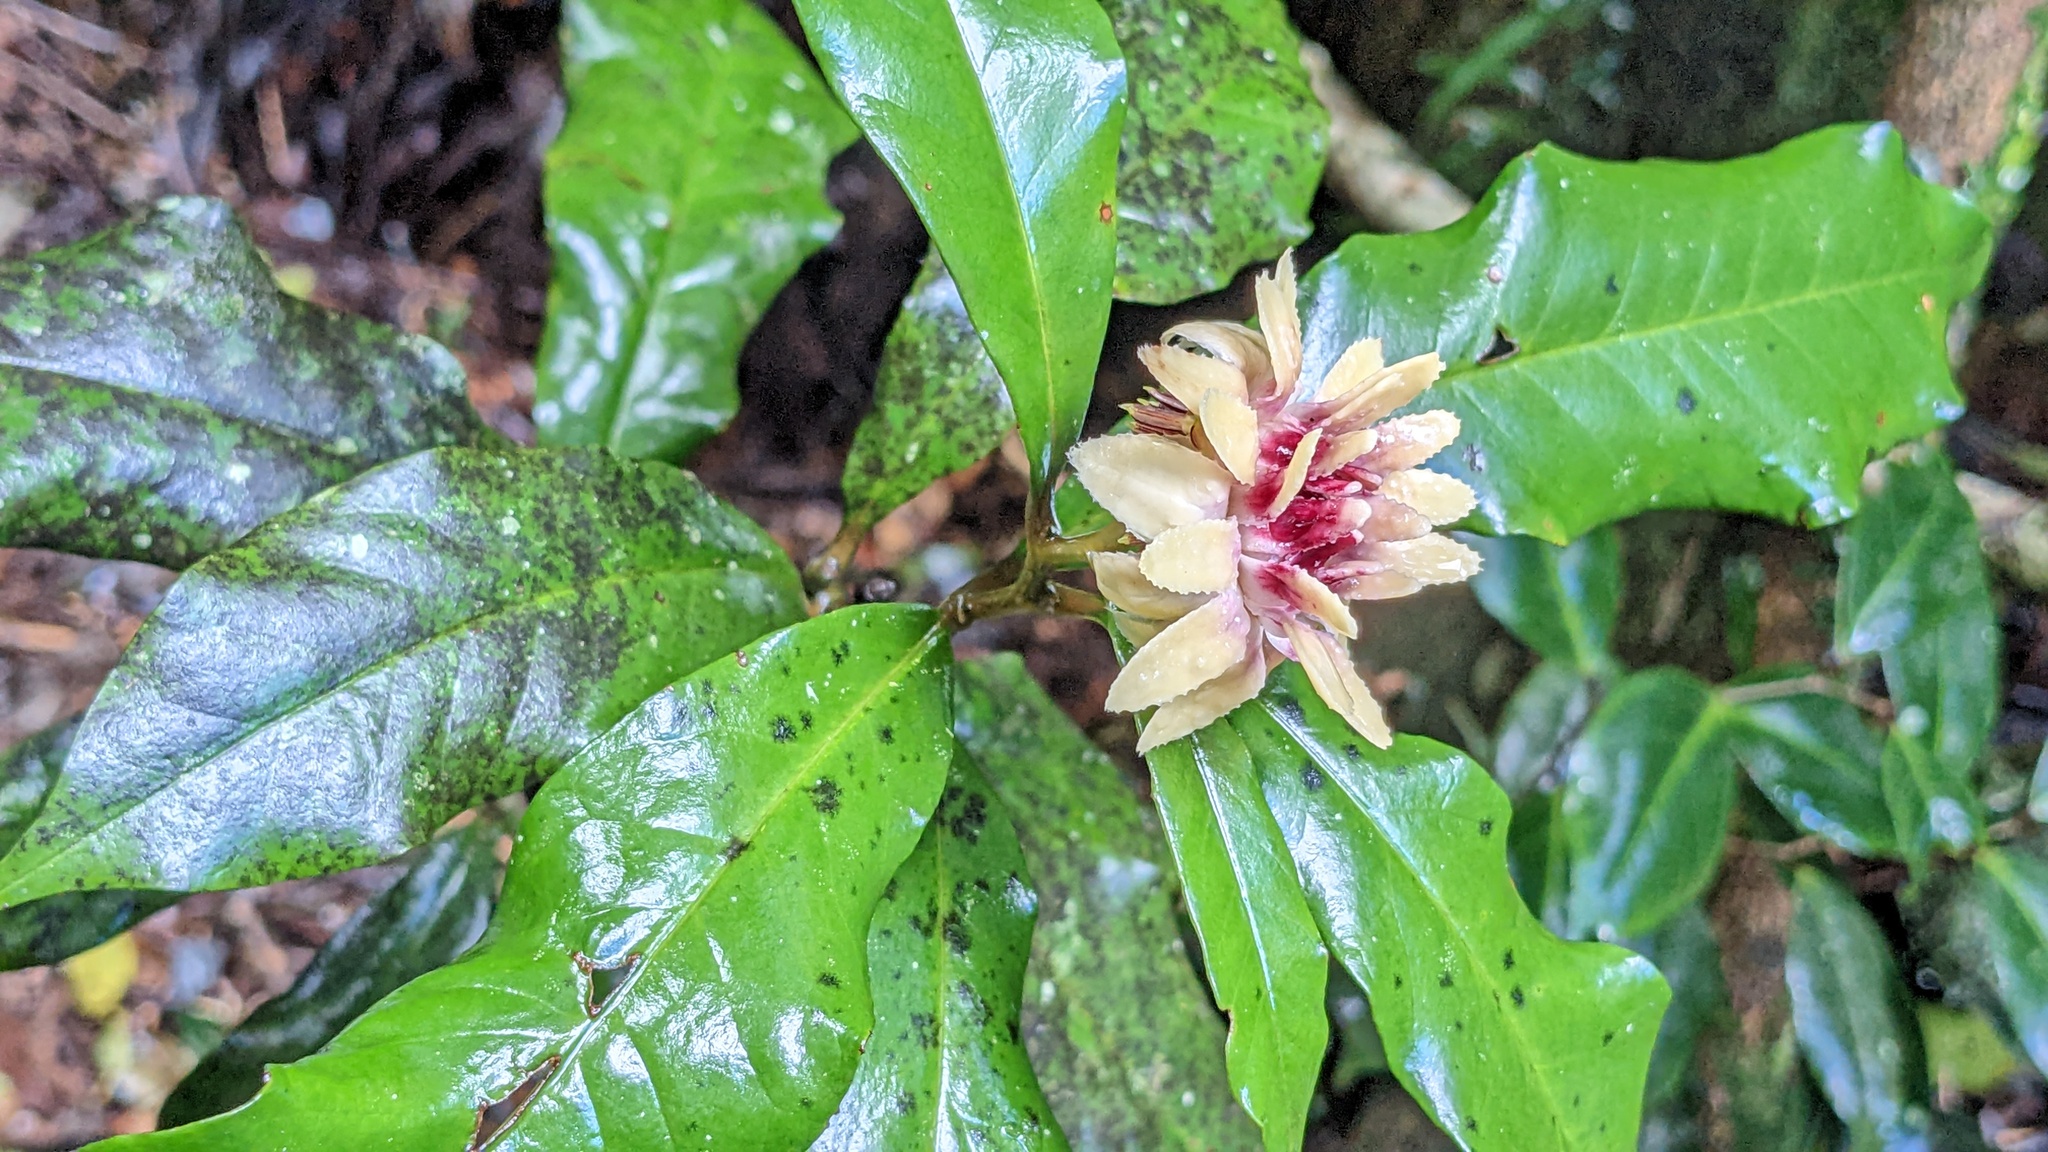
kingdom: Plantae
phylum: Tracheophyta
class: Magnoliopsida
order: Magnoliales
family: Eupomatiaceae
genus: Eupomatia
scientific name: Eupomatia bennettii
